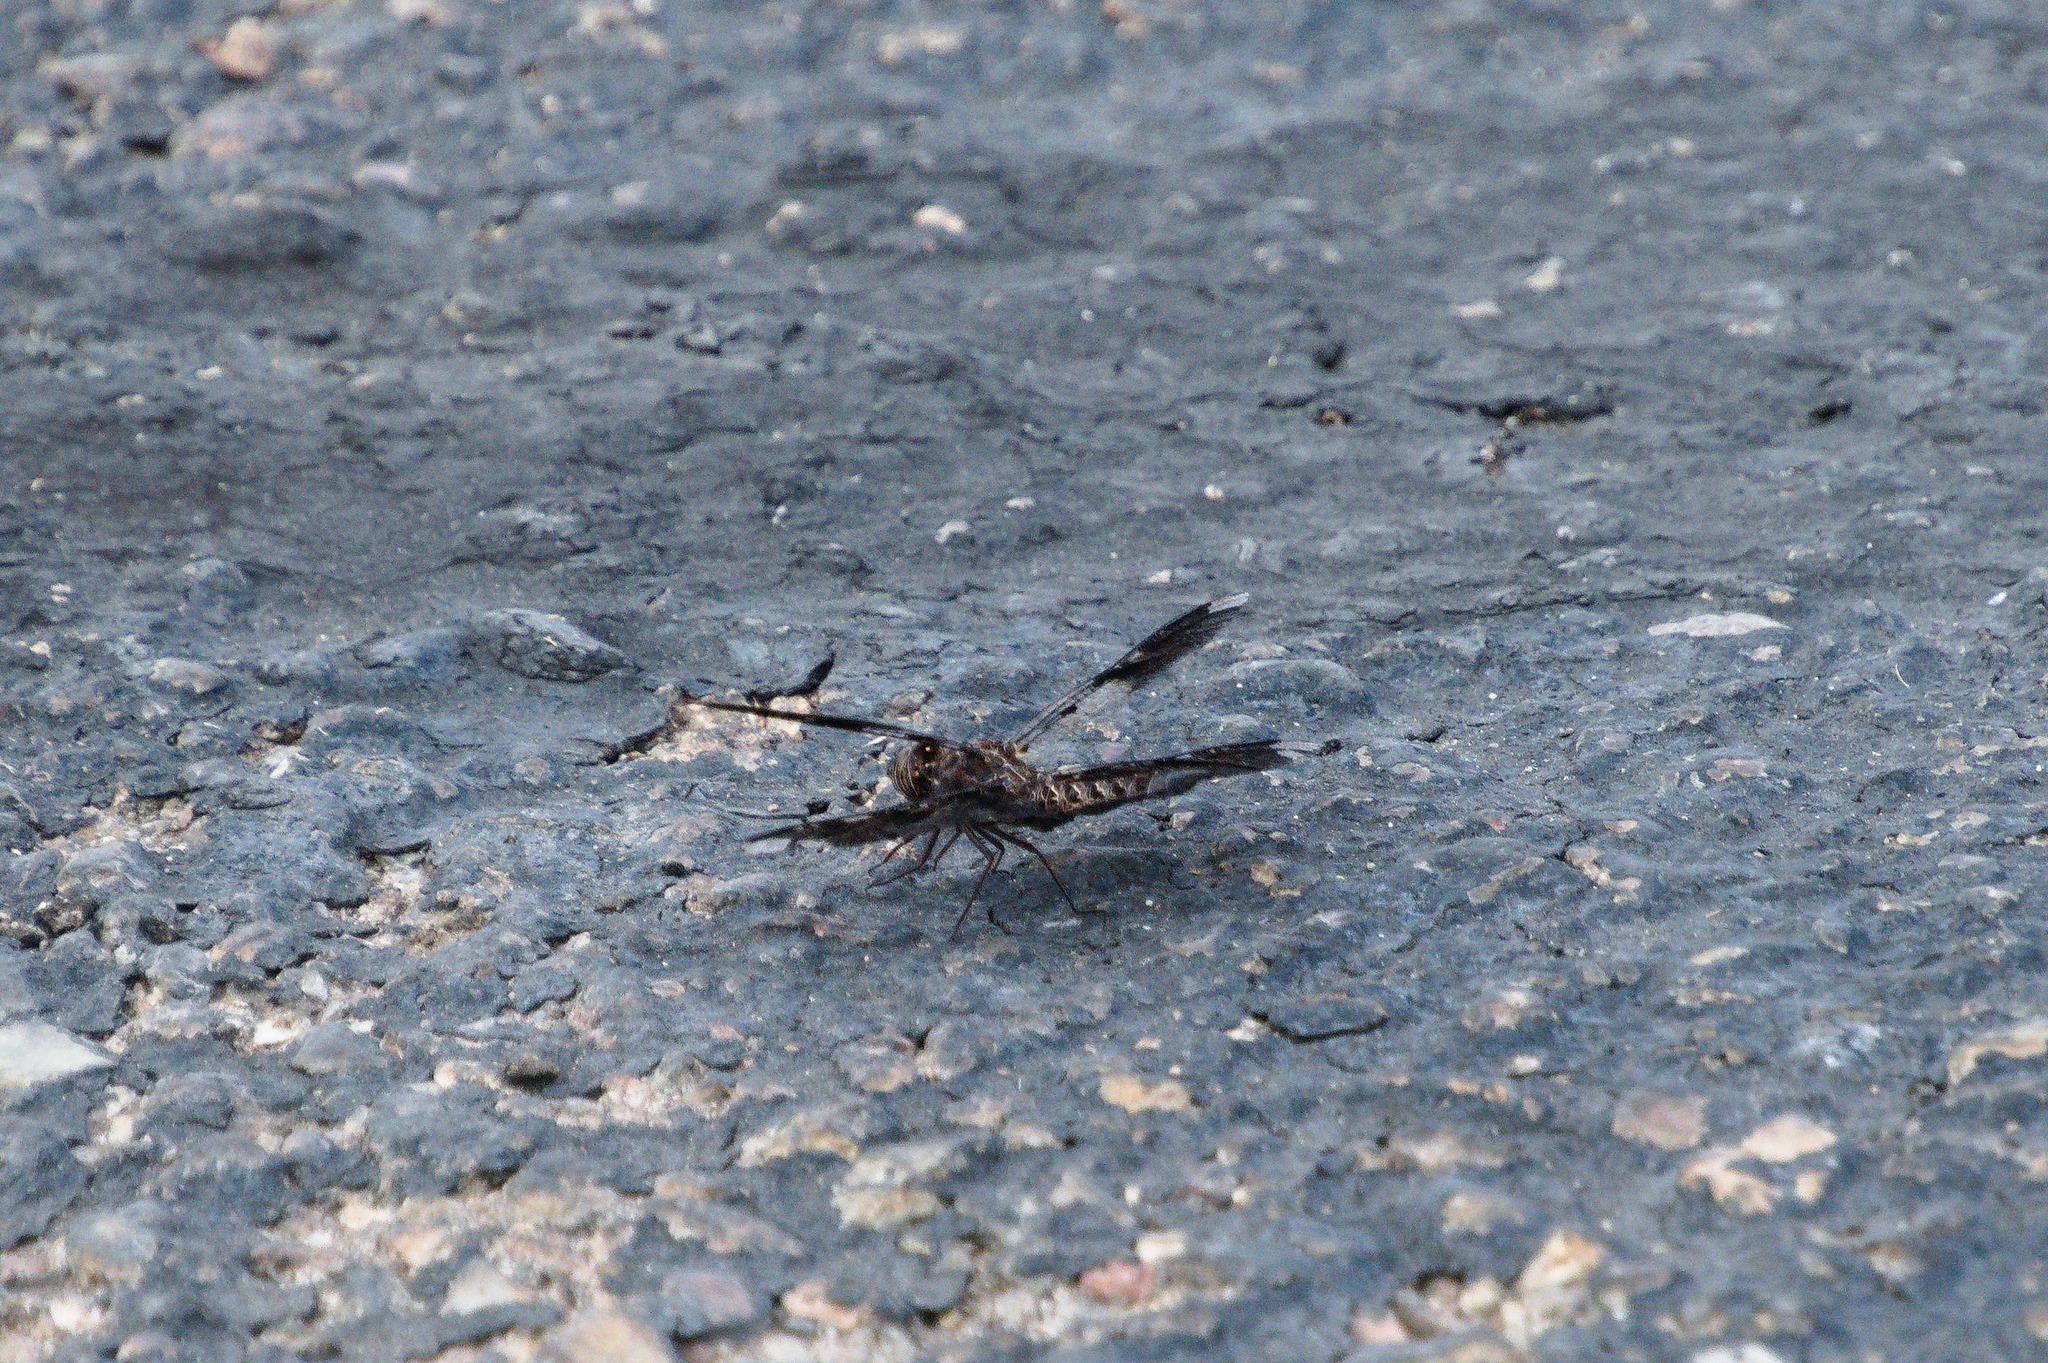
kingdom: Animalia
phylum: Arthropoda
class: Insecta
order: Odonata
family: Libellulidae
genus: Pseudoleon
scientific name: Pseudoleon superbus
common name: Filigree skimmer
